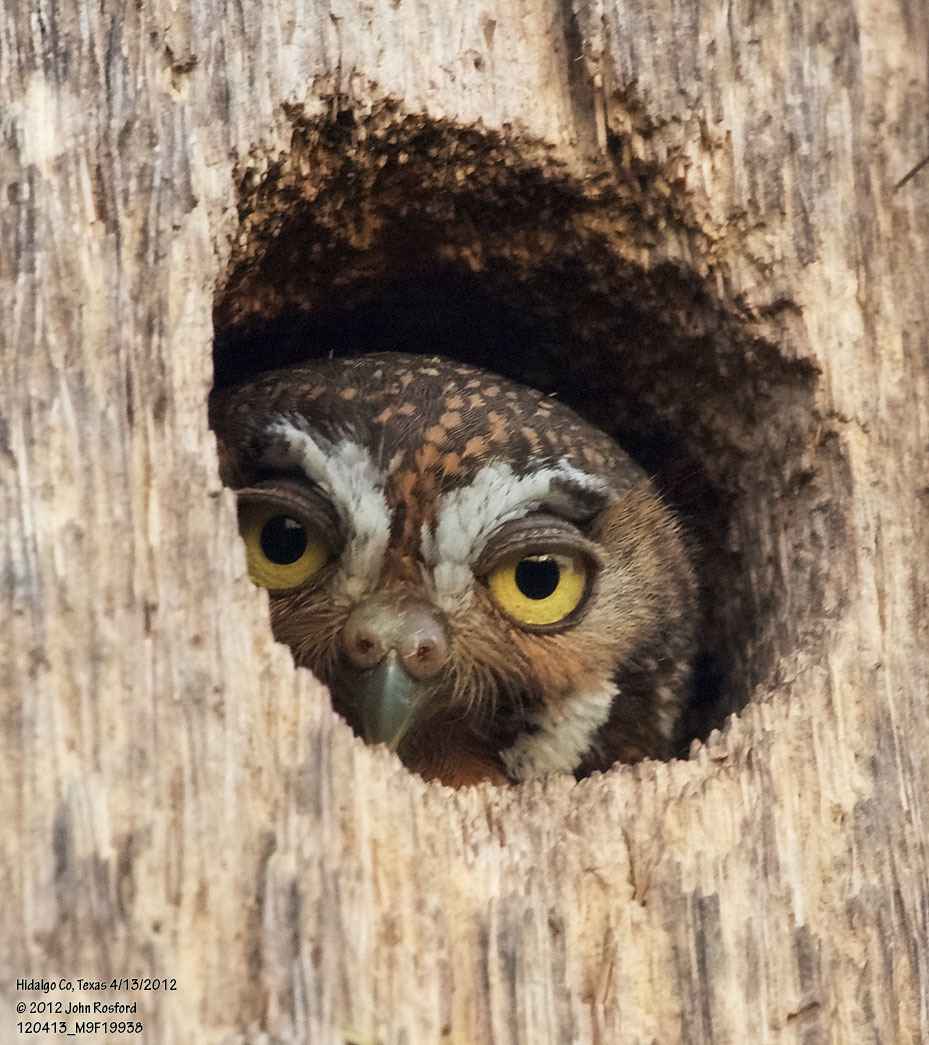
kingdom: Animalia
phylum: Chordata
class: Aves
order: Strigiformes
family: Strigidae
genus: Micrathene
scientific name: Micrathene whitneyi
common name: Elf owl
